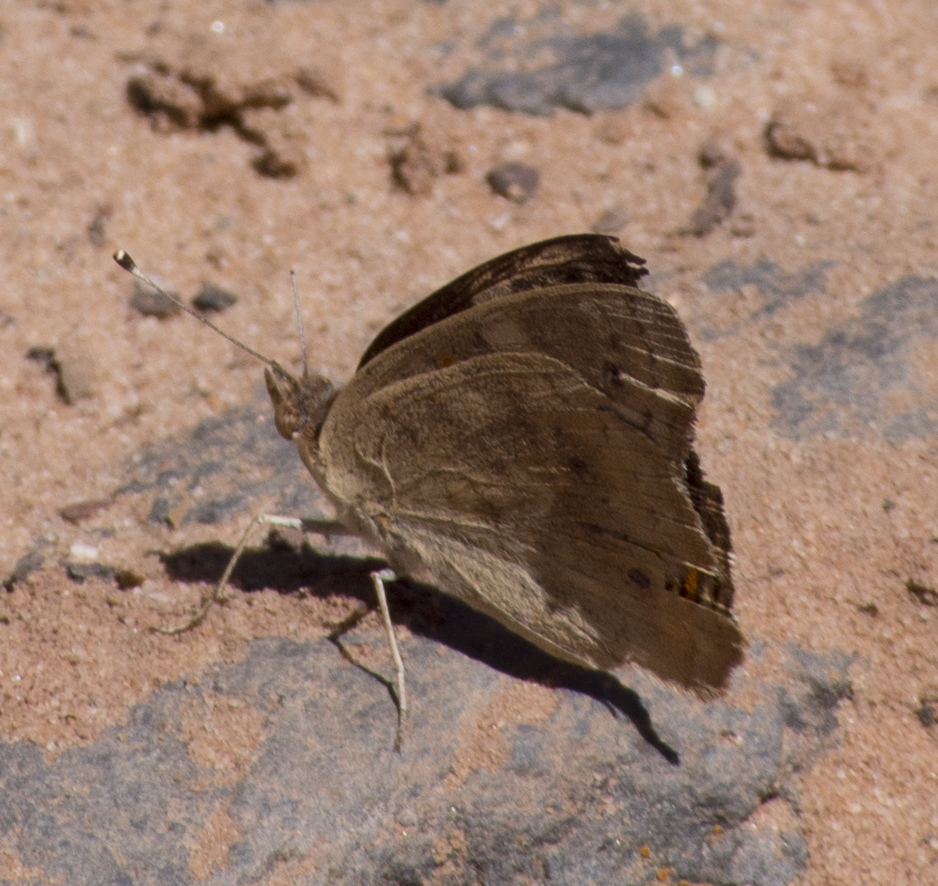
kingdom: Animalia
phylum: Arthropoda
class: Insecta
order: Lepidoptera
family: Nymphalidae
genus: Junonia
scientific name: Junonia grisea
